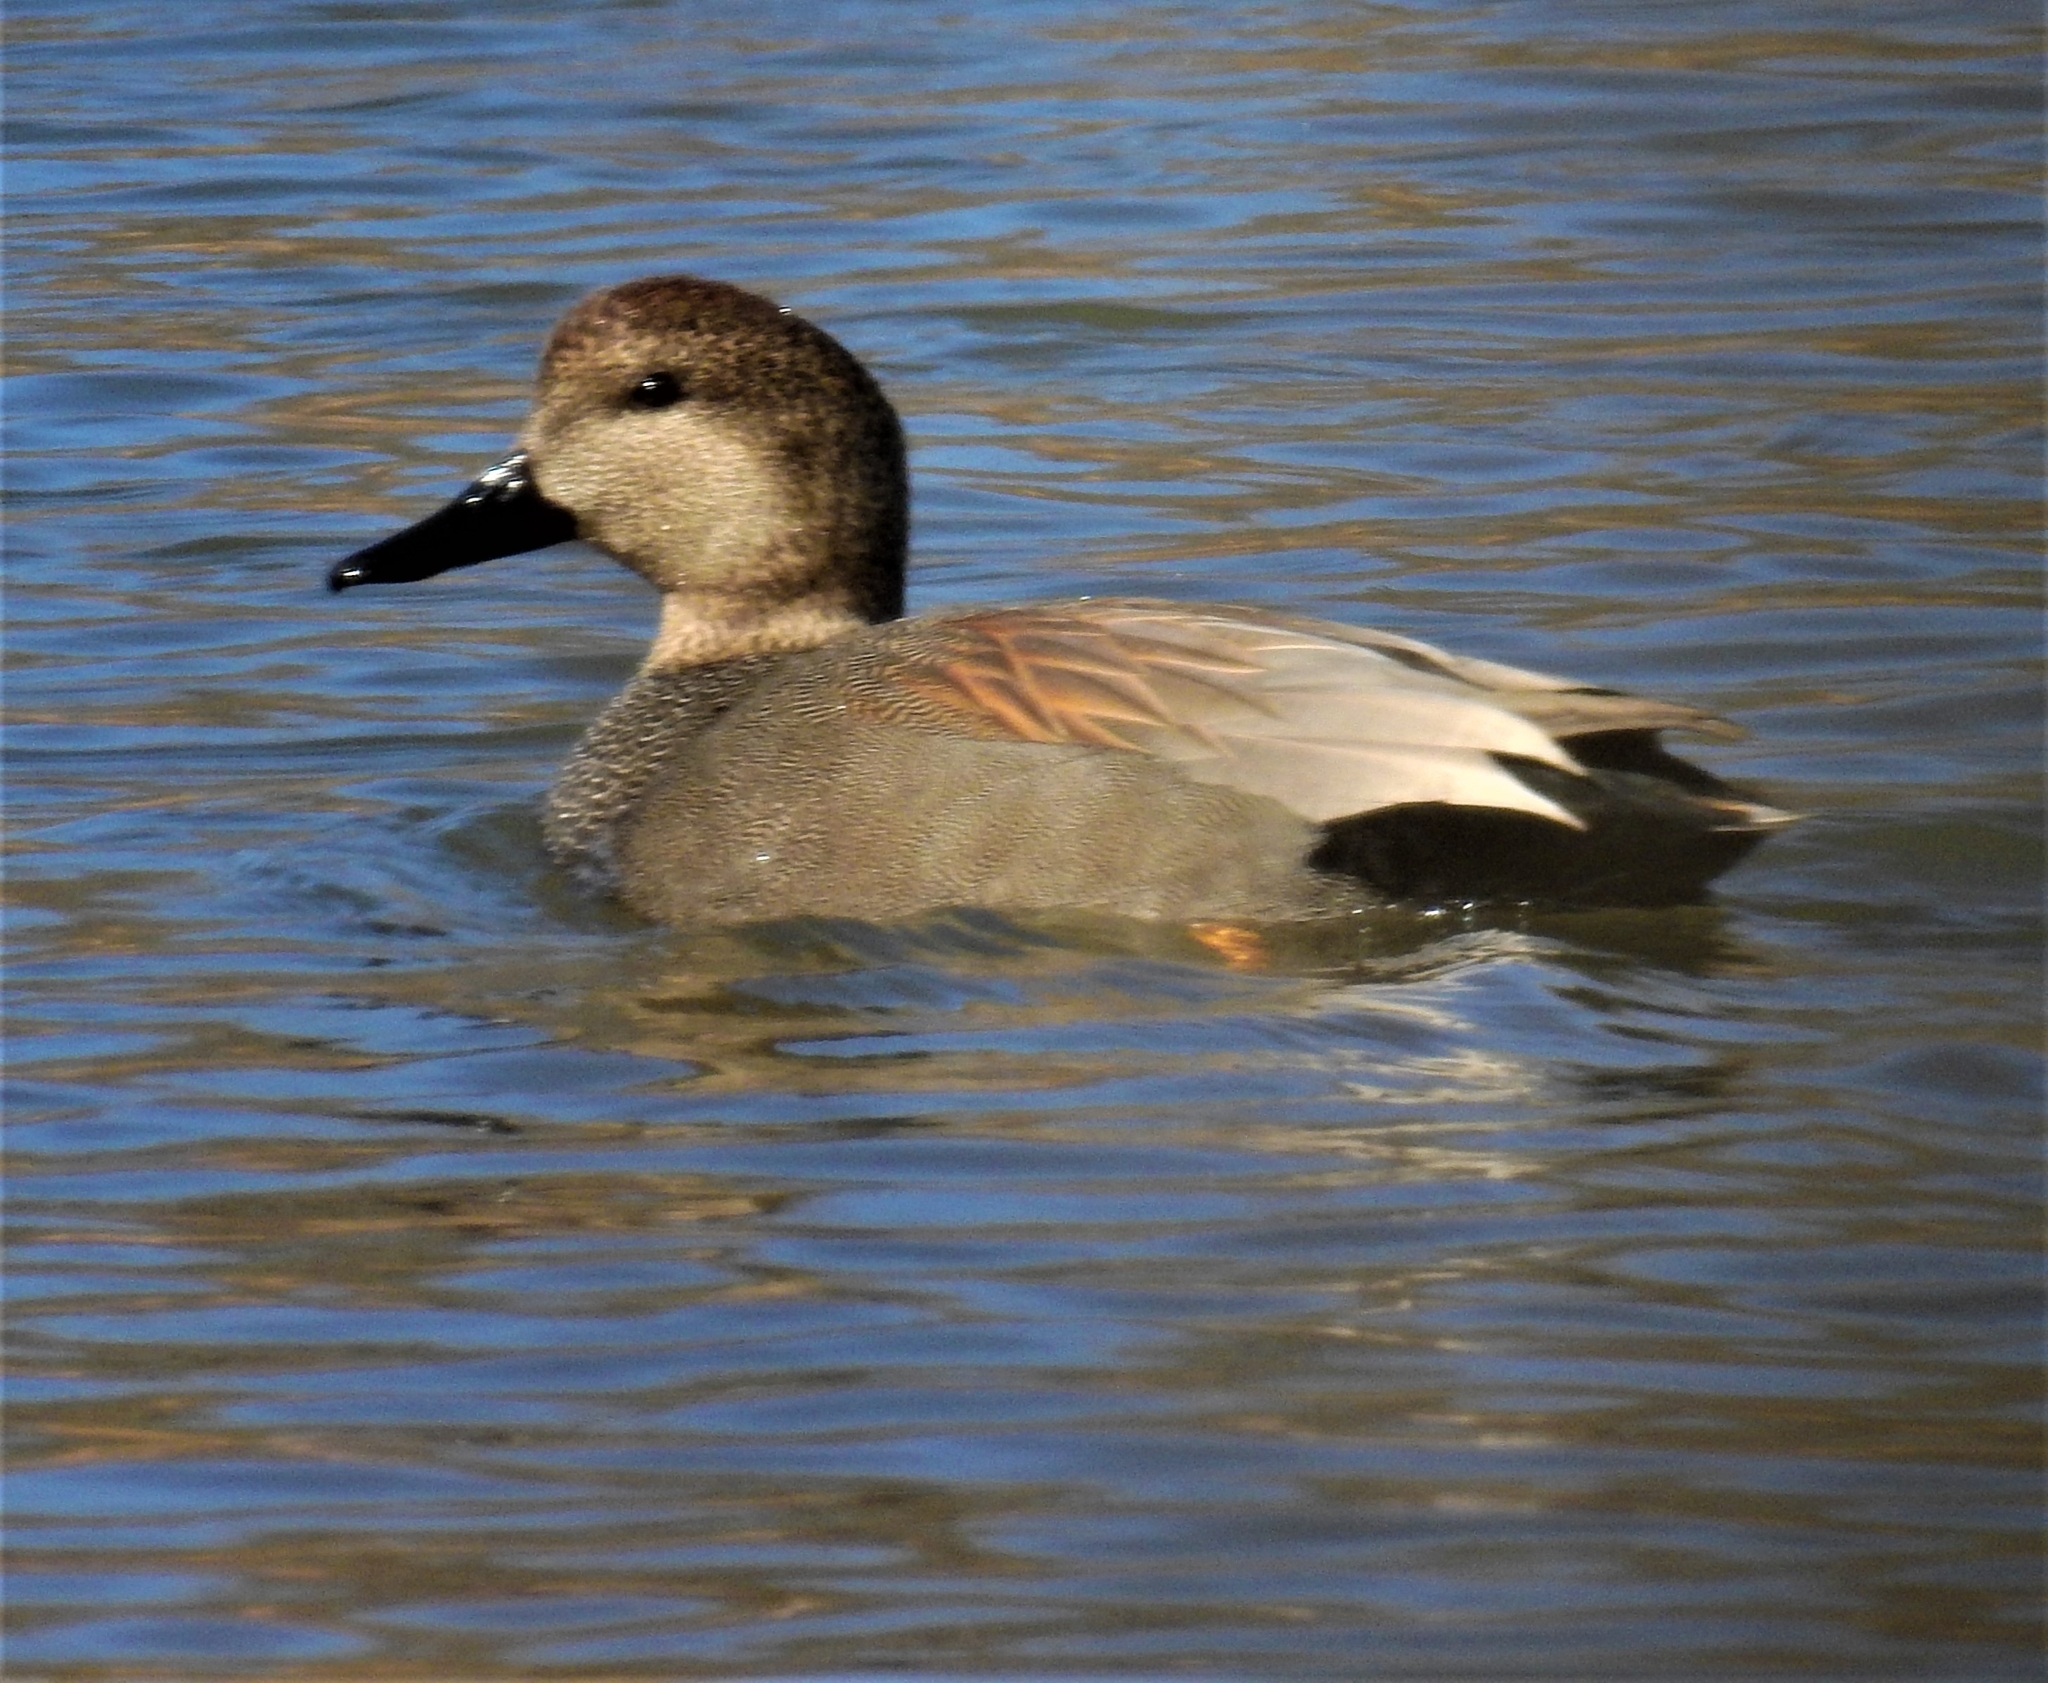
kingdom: Animalia
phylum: Chordata
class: Aves
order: Anseriformes
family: Anatidae
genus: Mareca
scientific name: Mareca strepera
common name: Gadwall
